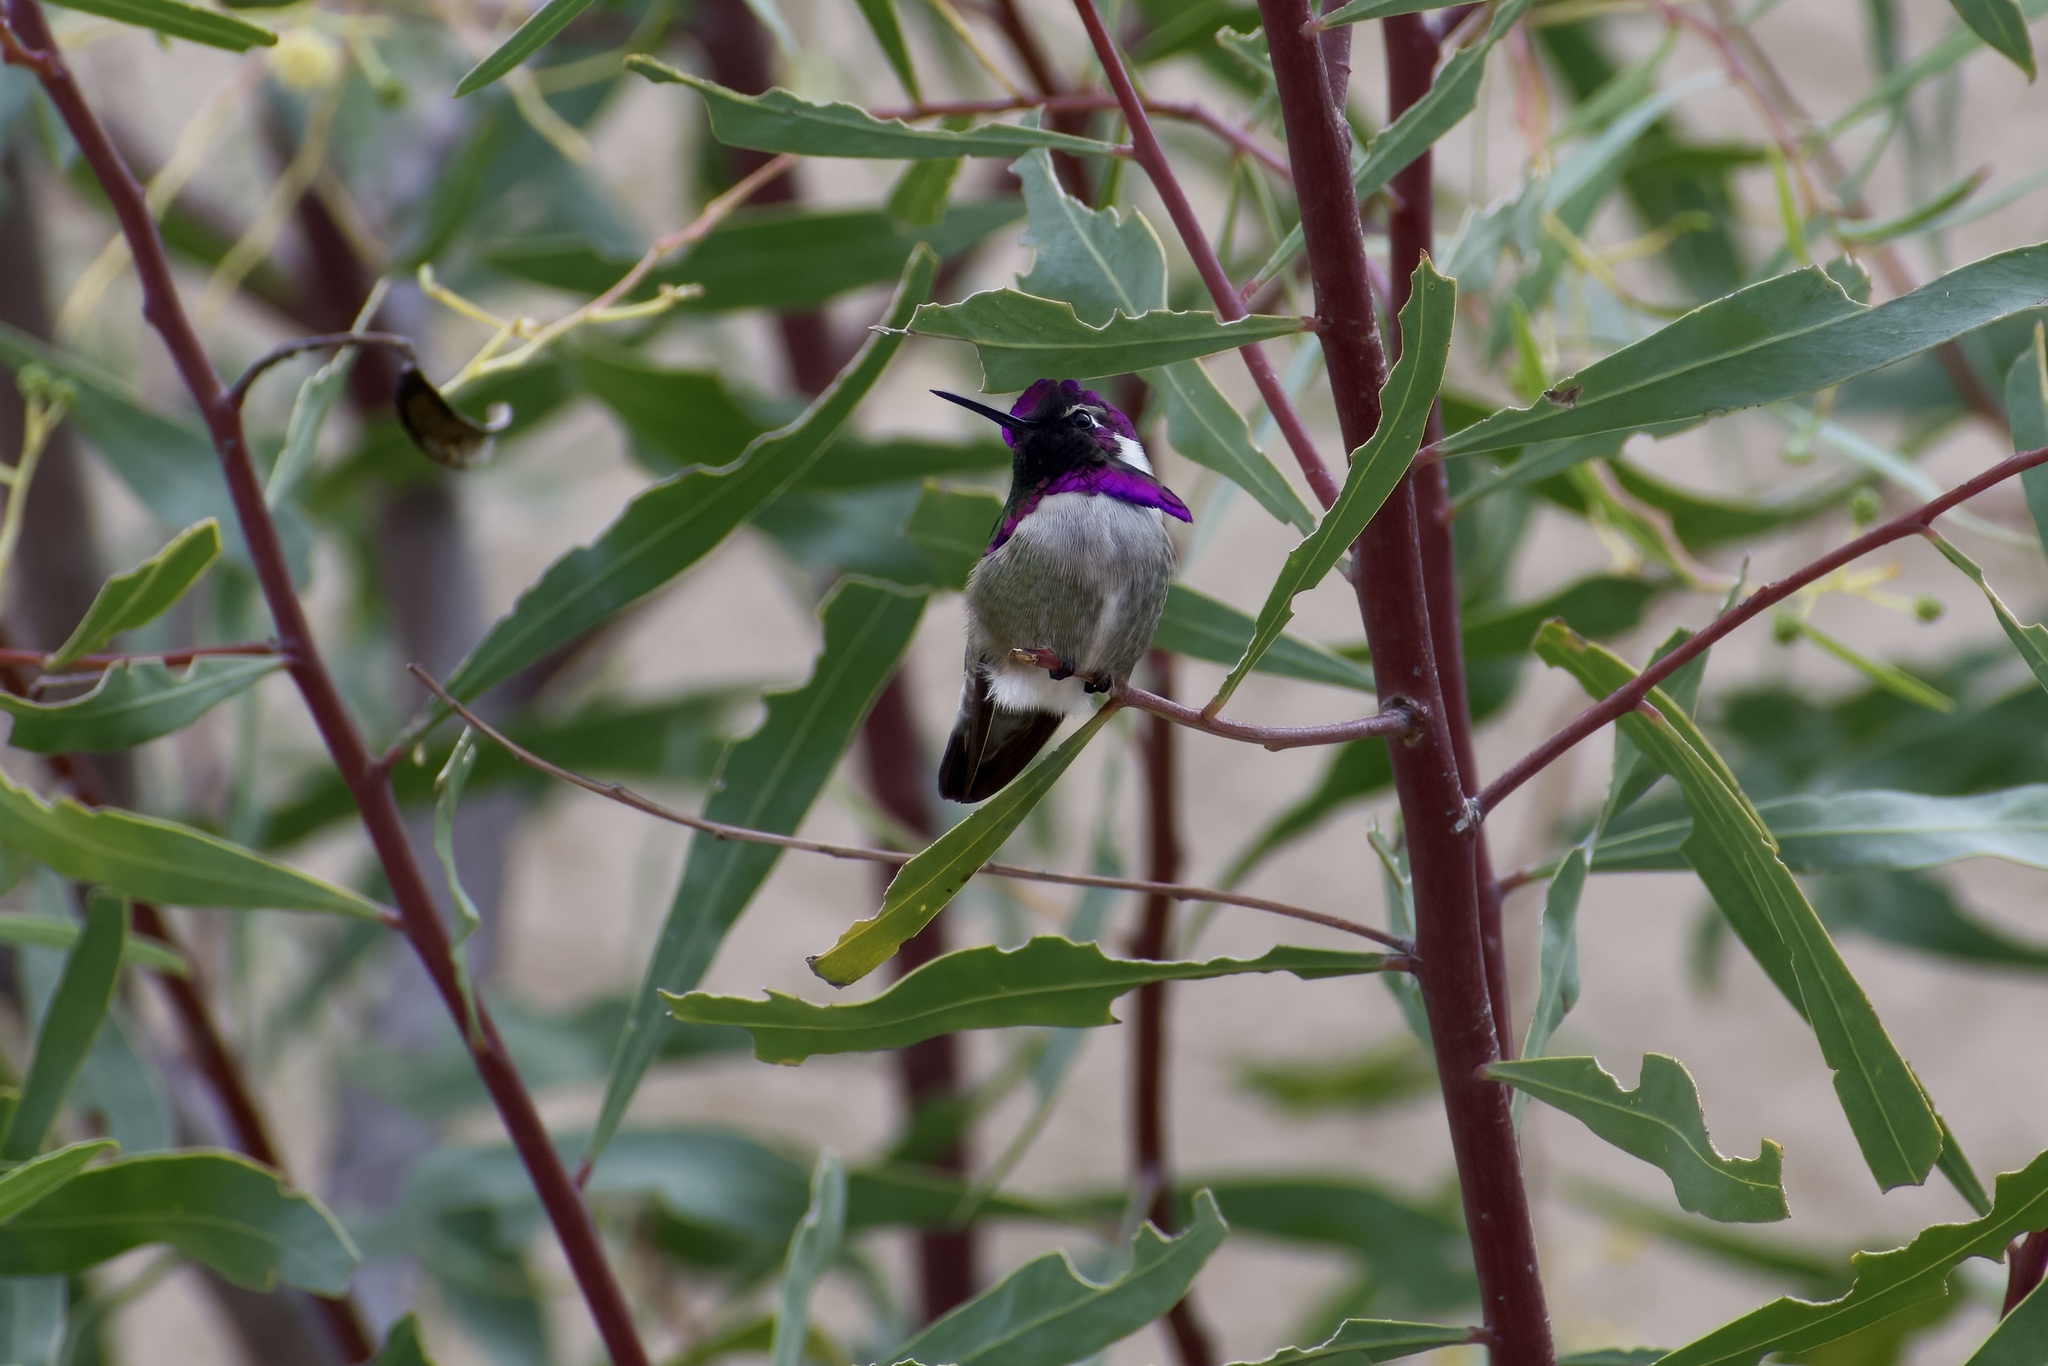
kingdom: Animalia
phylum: Chordata
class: Aves
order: Apodiformes
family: Trochilidae
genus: Calypte
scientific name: Calypte costae
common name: Costa's hummingbird
